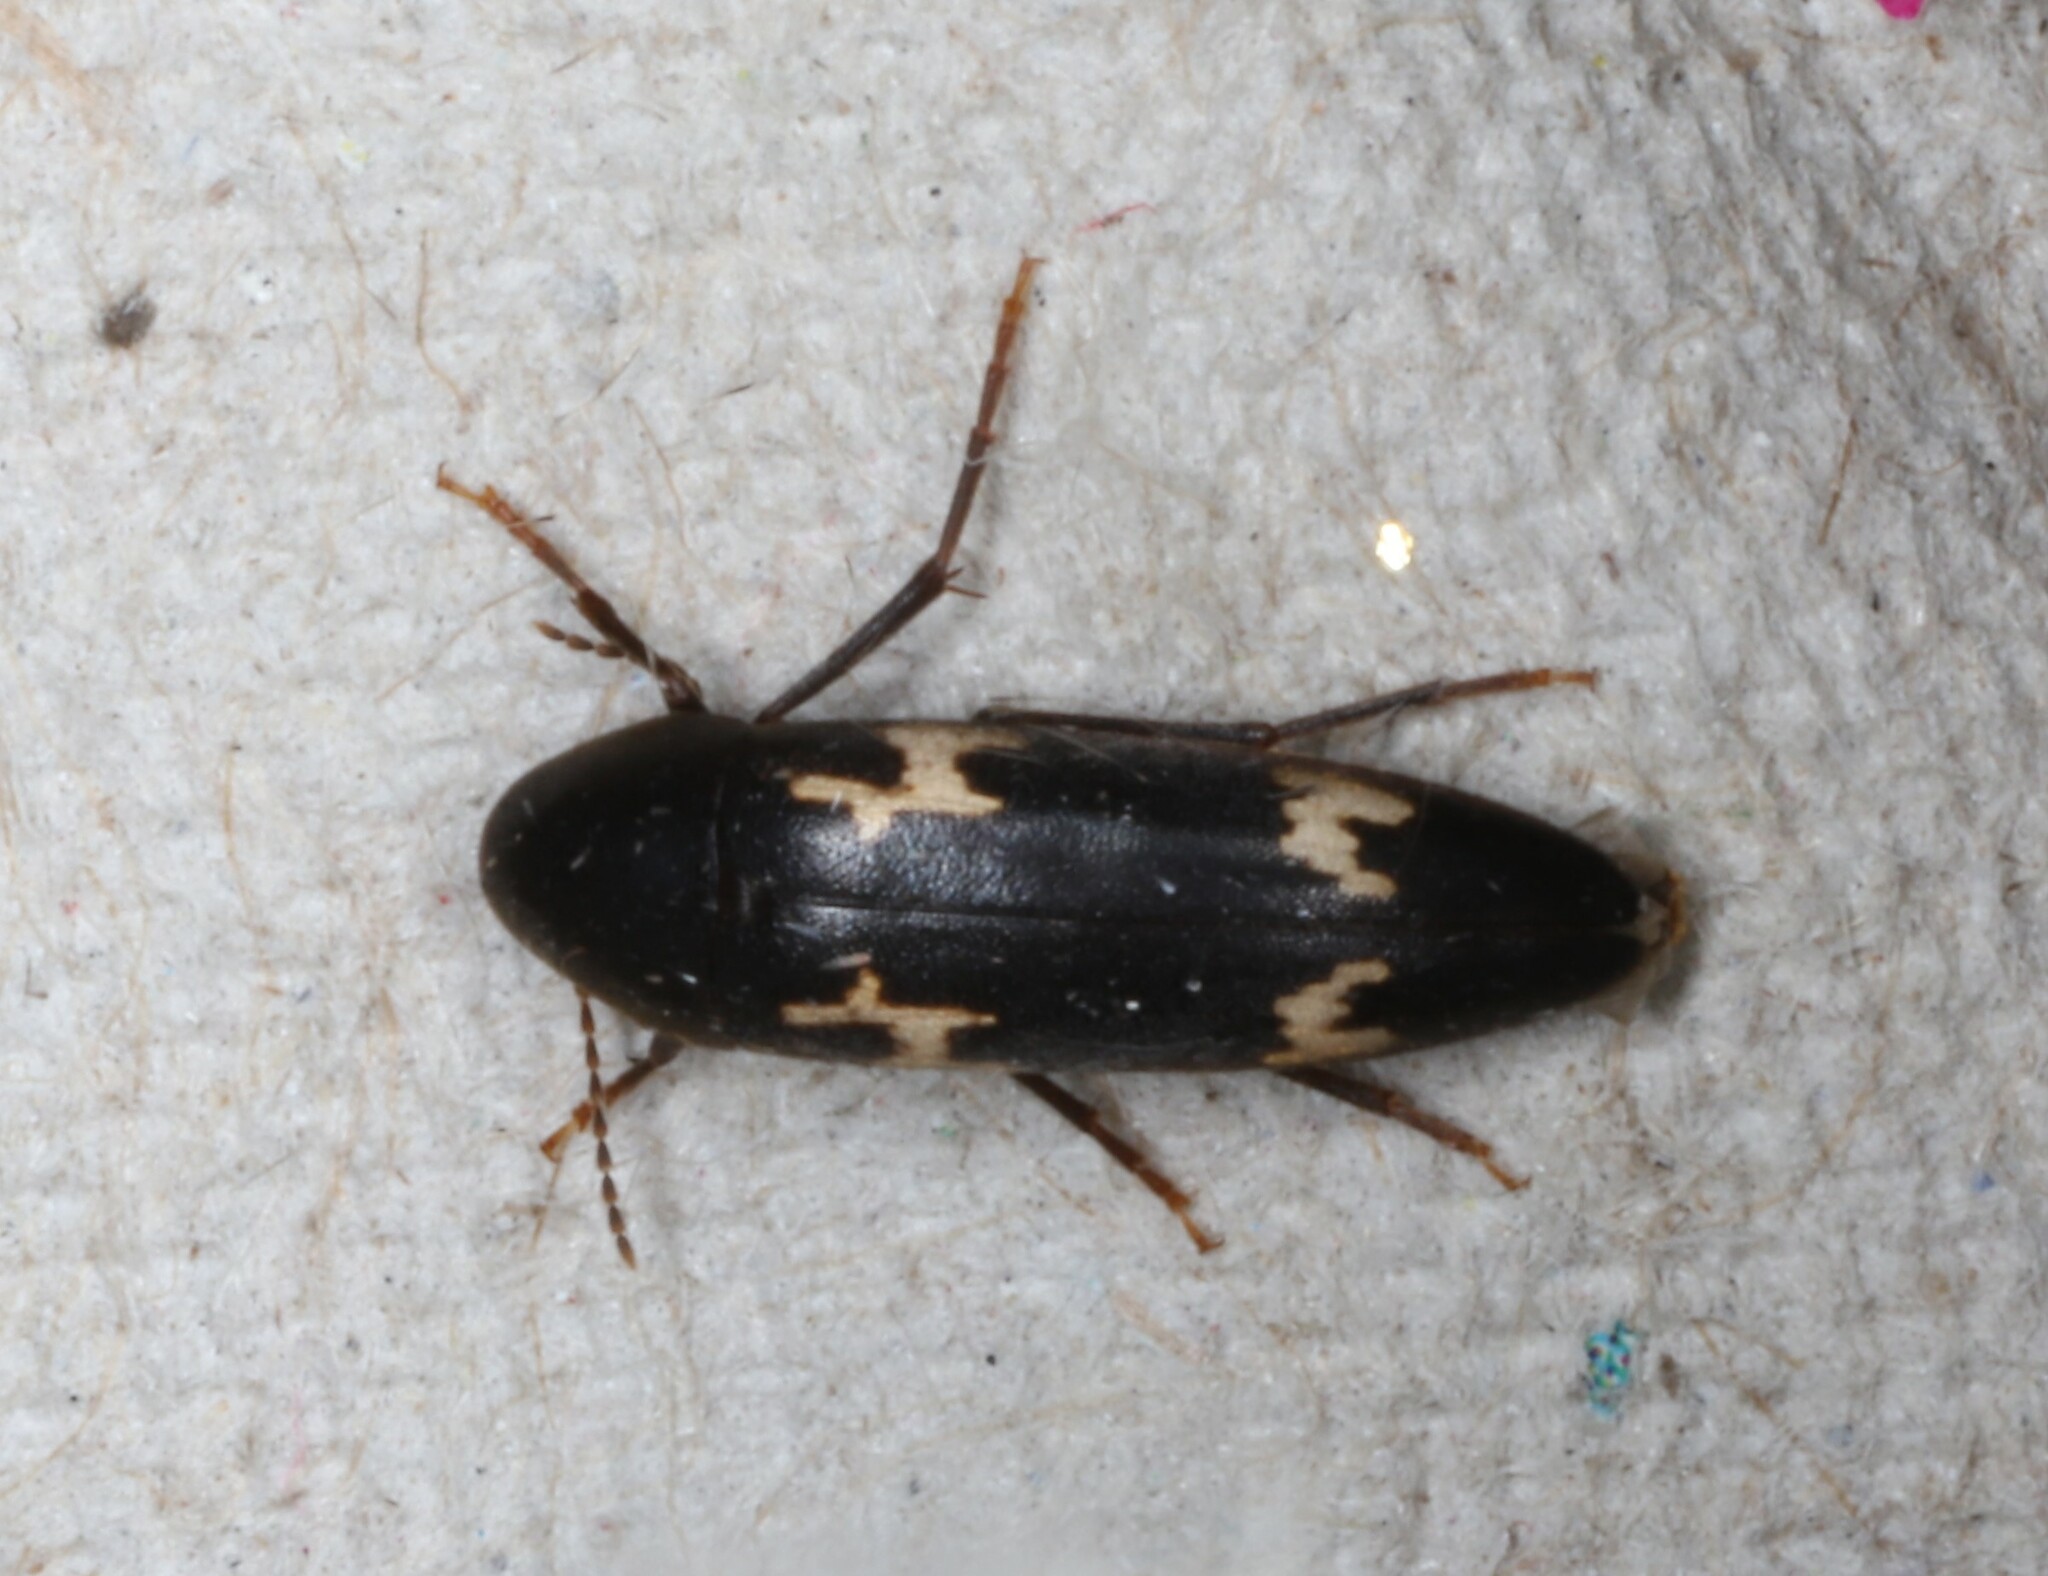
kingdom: Animalia
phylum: Arthropoda
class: Insecta
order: Coleoptera
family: Melandryidae
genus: Dircaea
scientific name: Dircaea liturata
